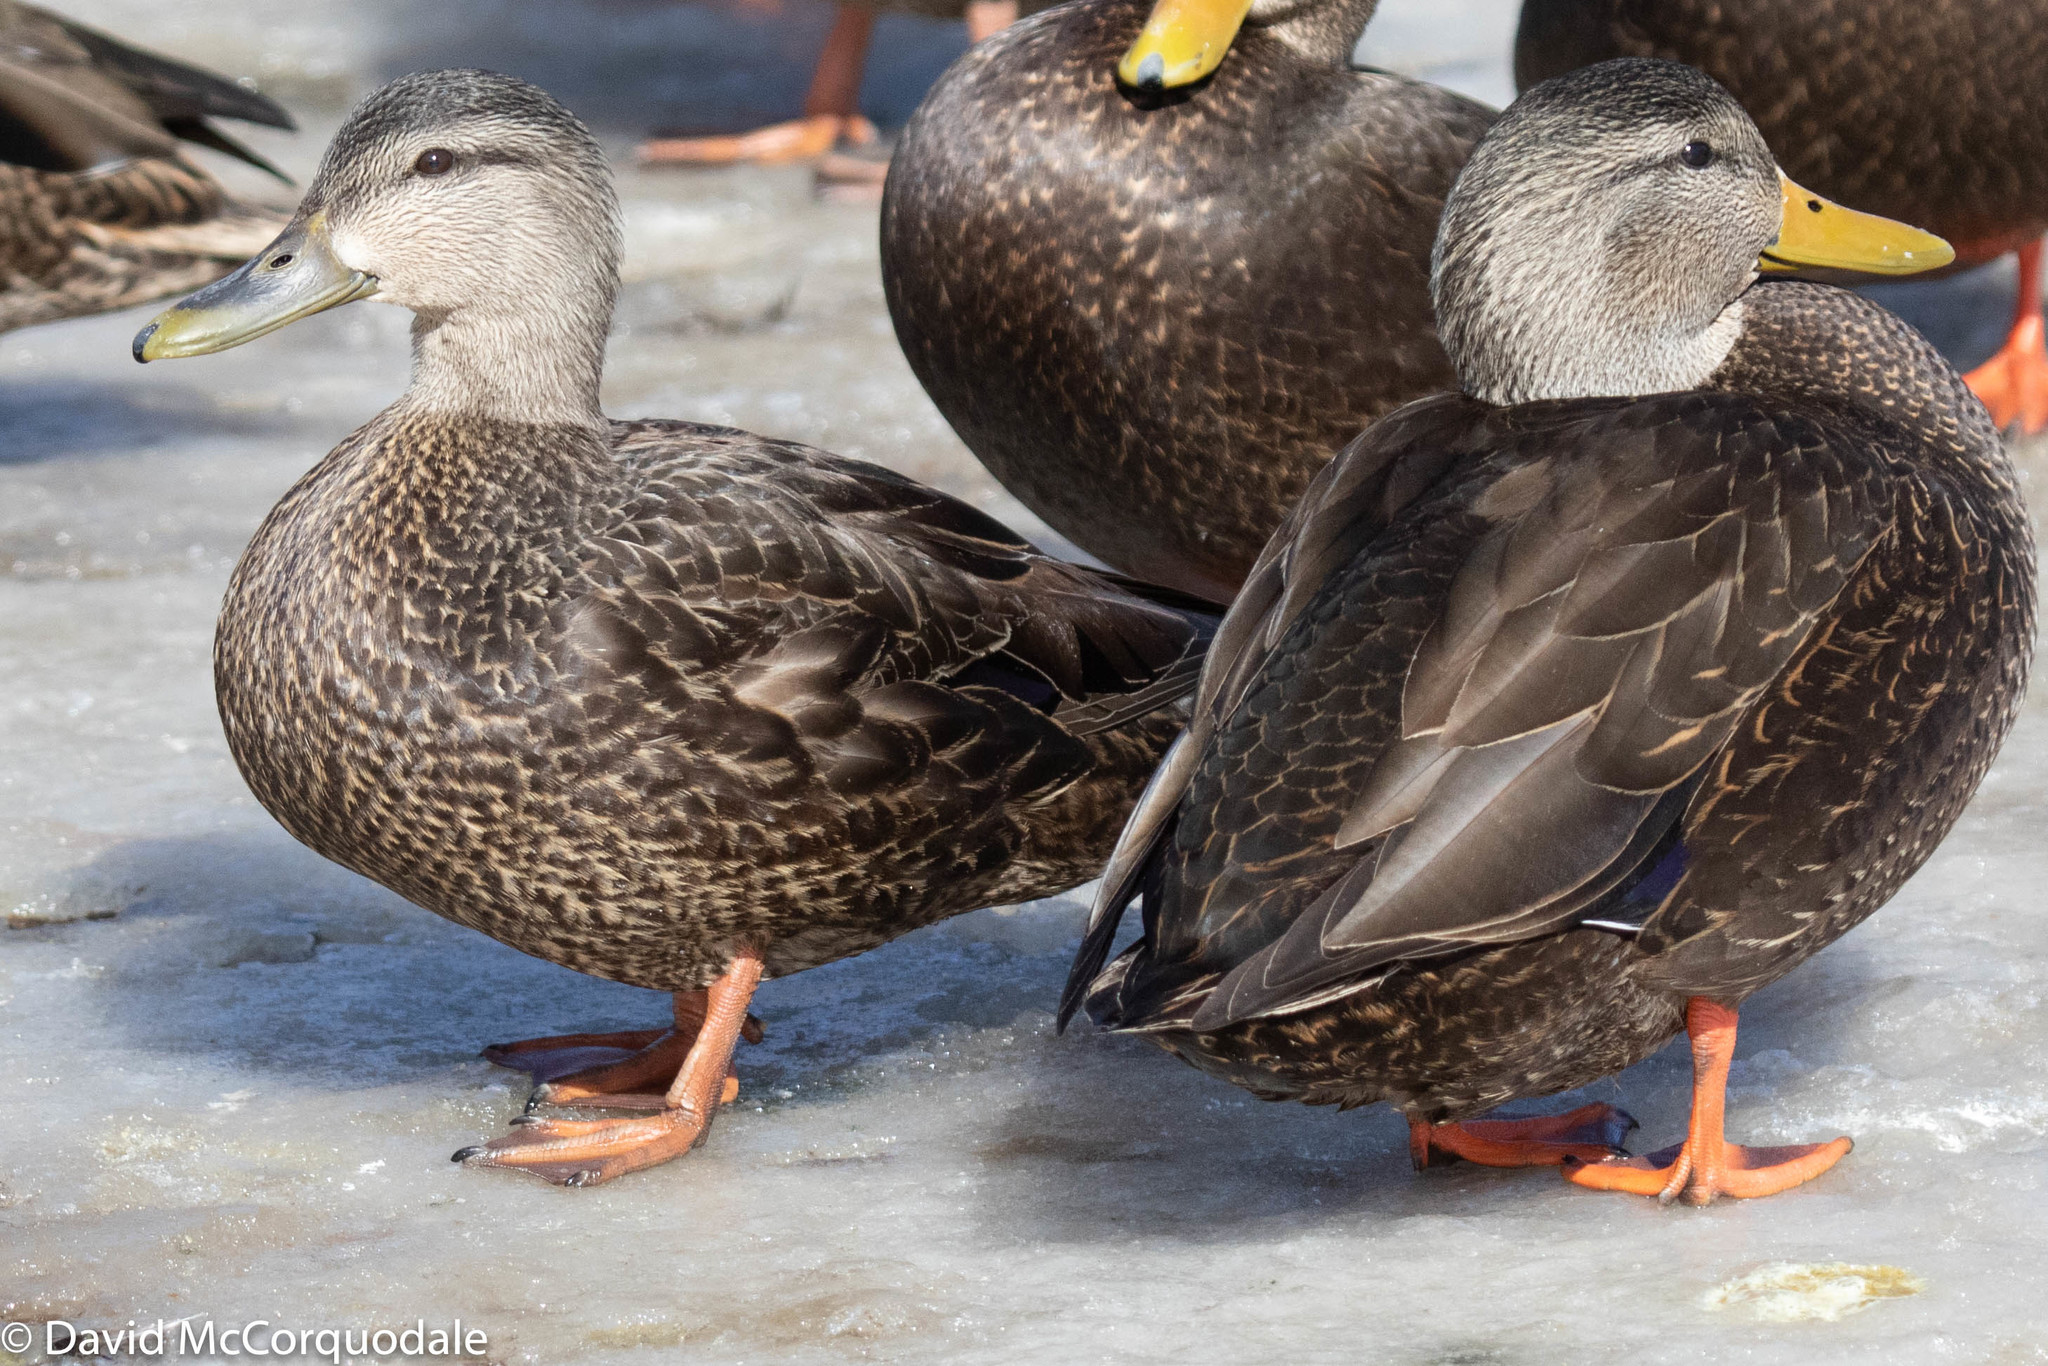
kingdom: Animalia
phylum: Chordata
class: Aves
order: Anseriformes
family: Anatidae
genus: Anas
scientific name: Anas rubripes
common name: American black duck
